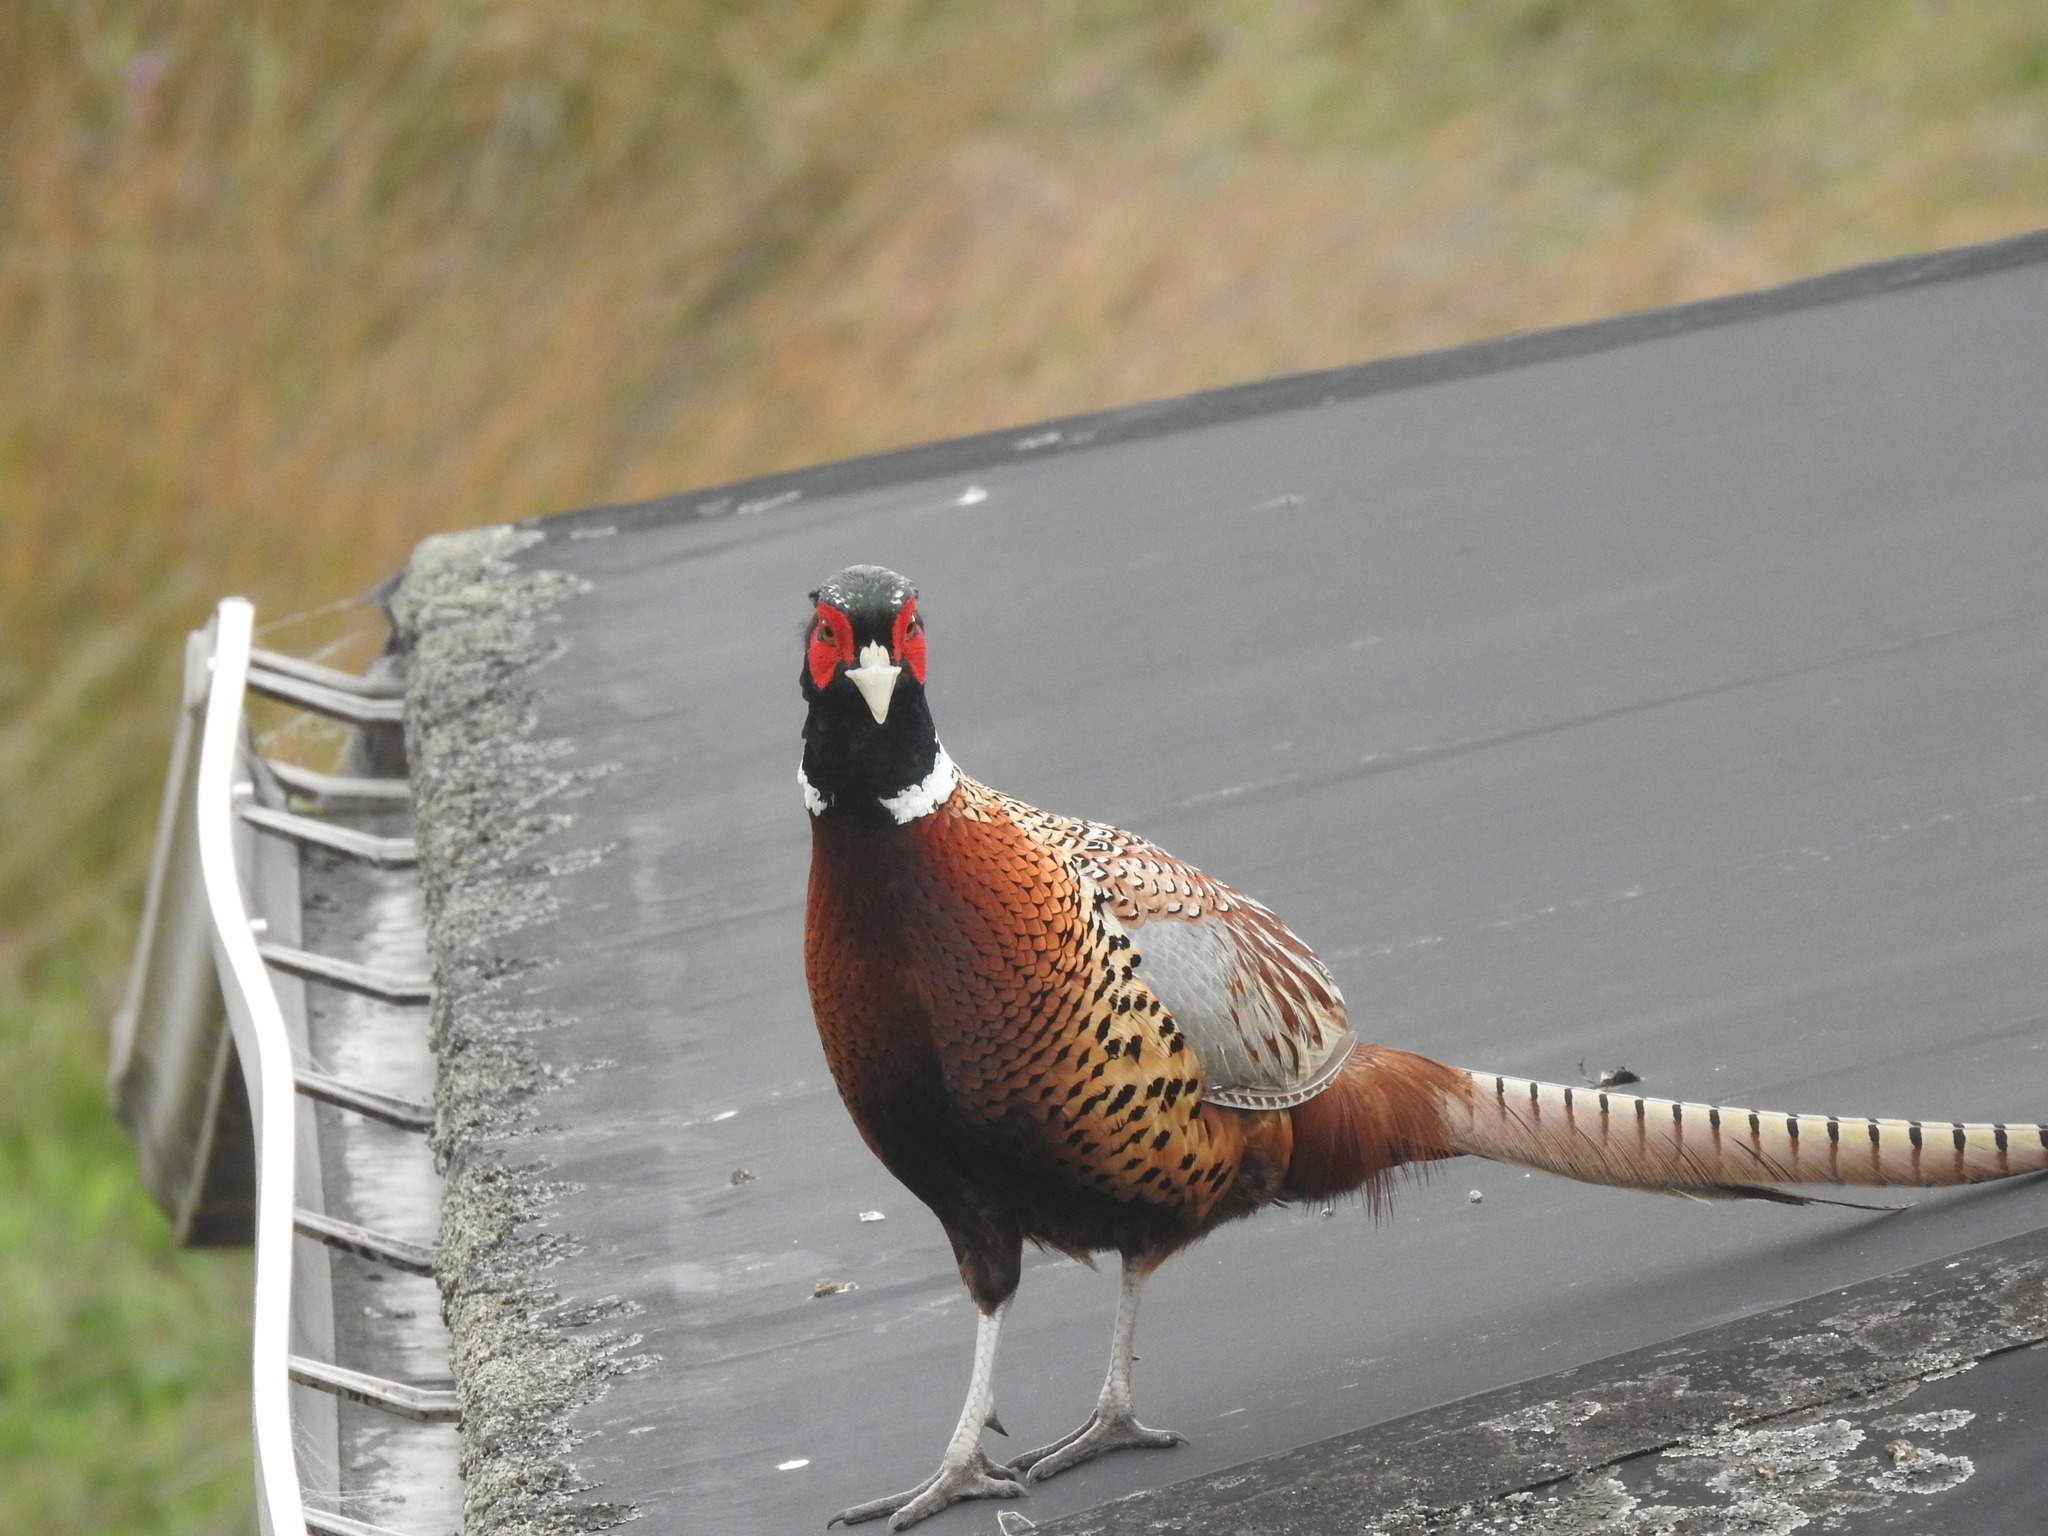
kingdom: Animalia
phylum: Chordata
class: Aves
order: Galliformes
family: Phasianidae
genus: Phasianus
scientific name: Phasianus colchicus
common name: Common pheasant
